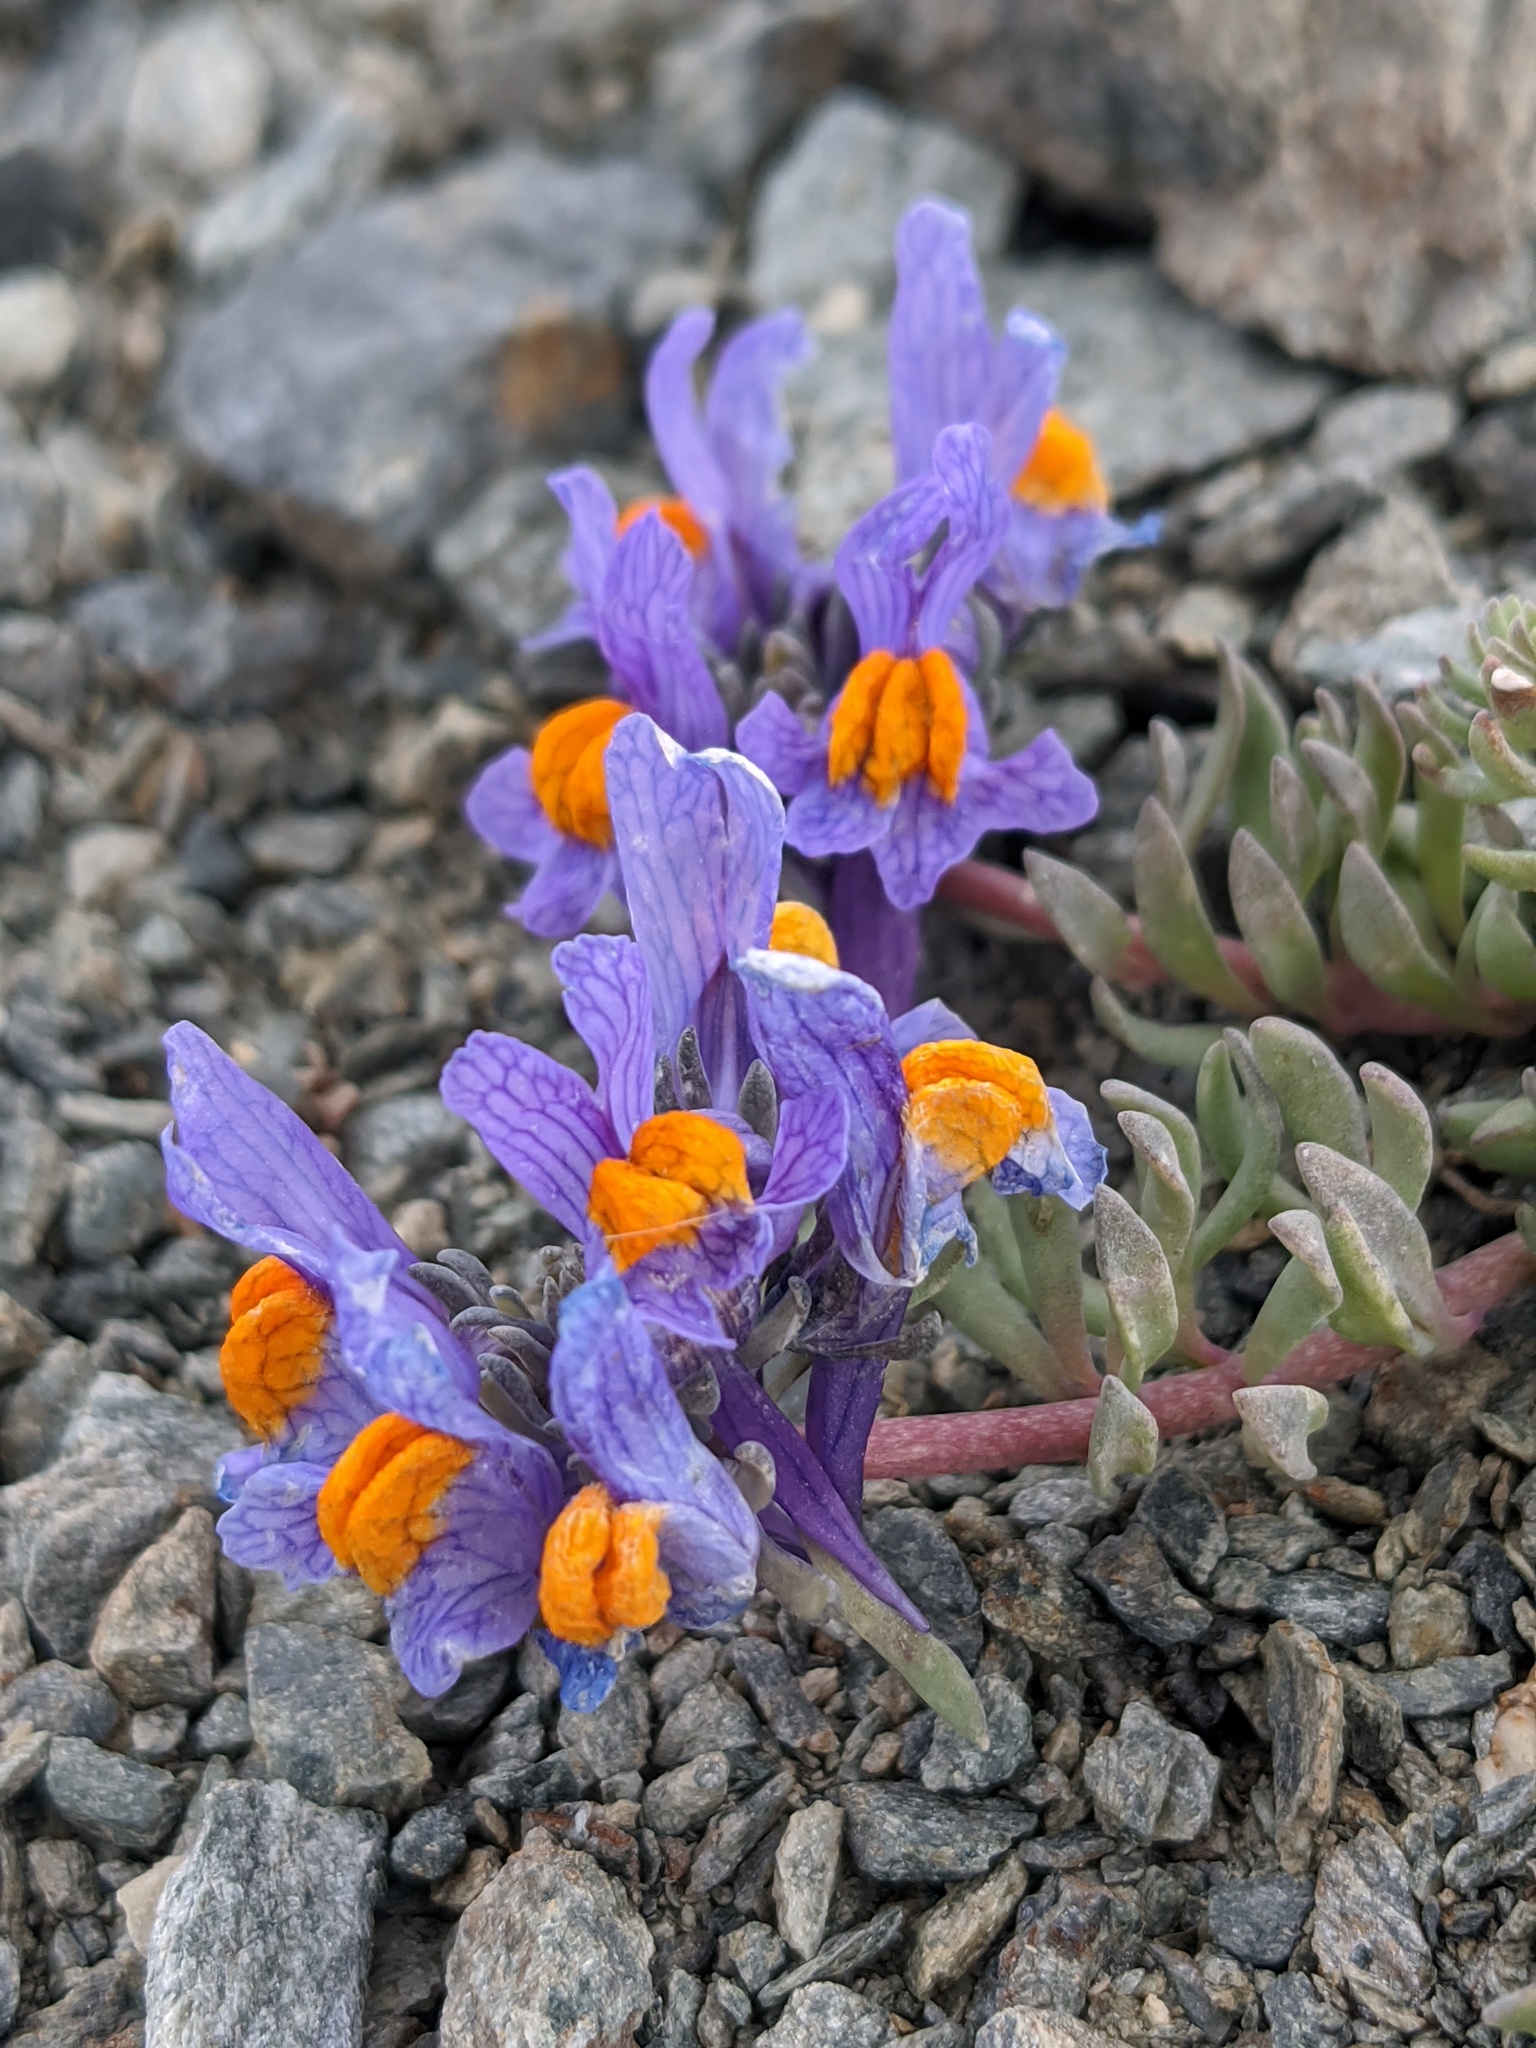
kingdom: Plantae
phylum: Tracheophyta
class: Magnoliopsida
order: Lamiales
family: Plantaginaceae
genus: Linaria
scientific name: Linaria alpina
